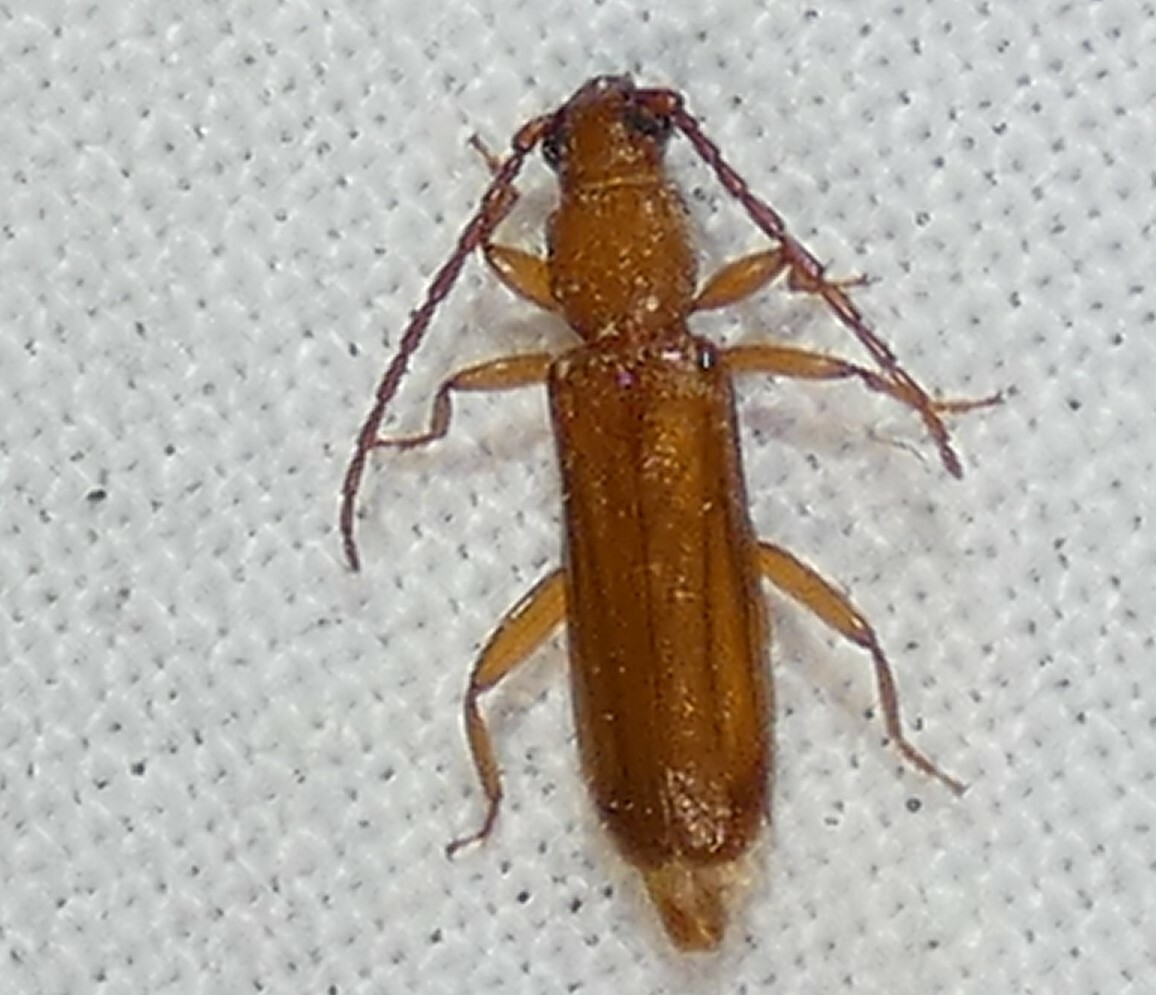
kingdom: Animalia
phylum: Arthropoda
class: Insecta
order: Coleoptera
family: Cerambycidae
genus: Smodicum
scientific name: Smodicum cucujiforme
